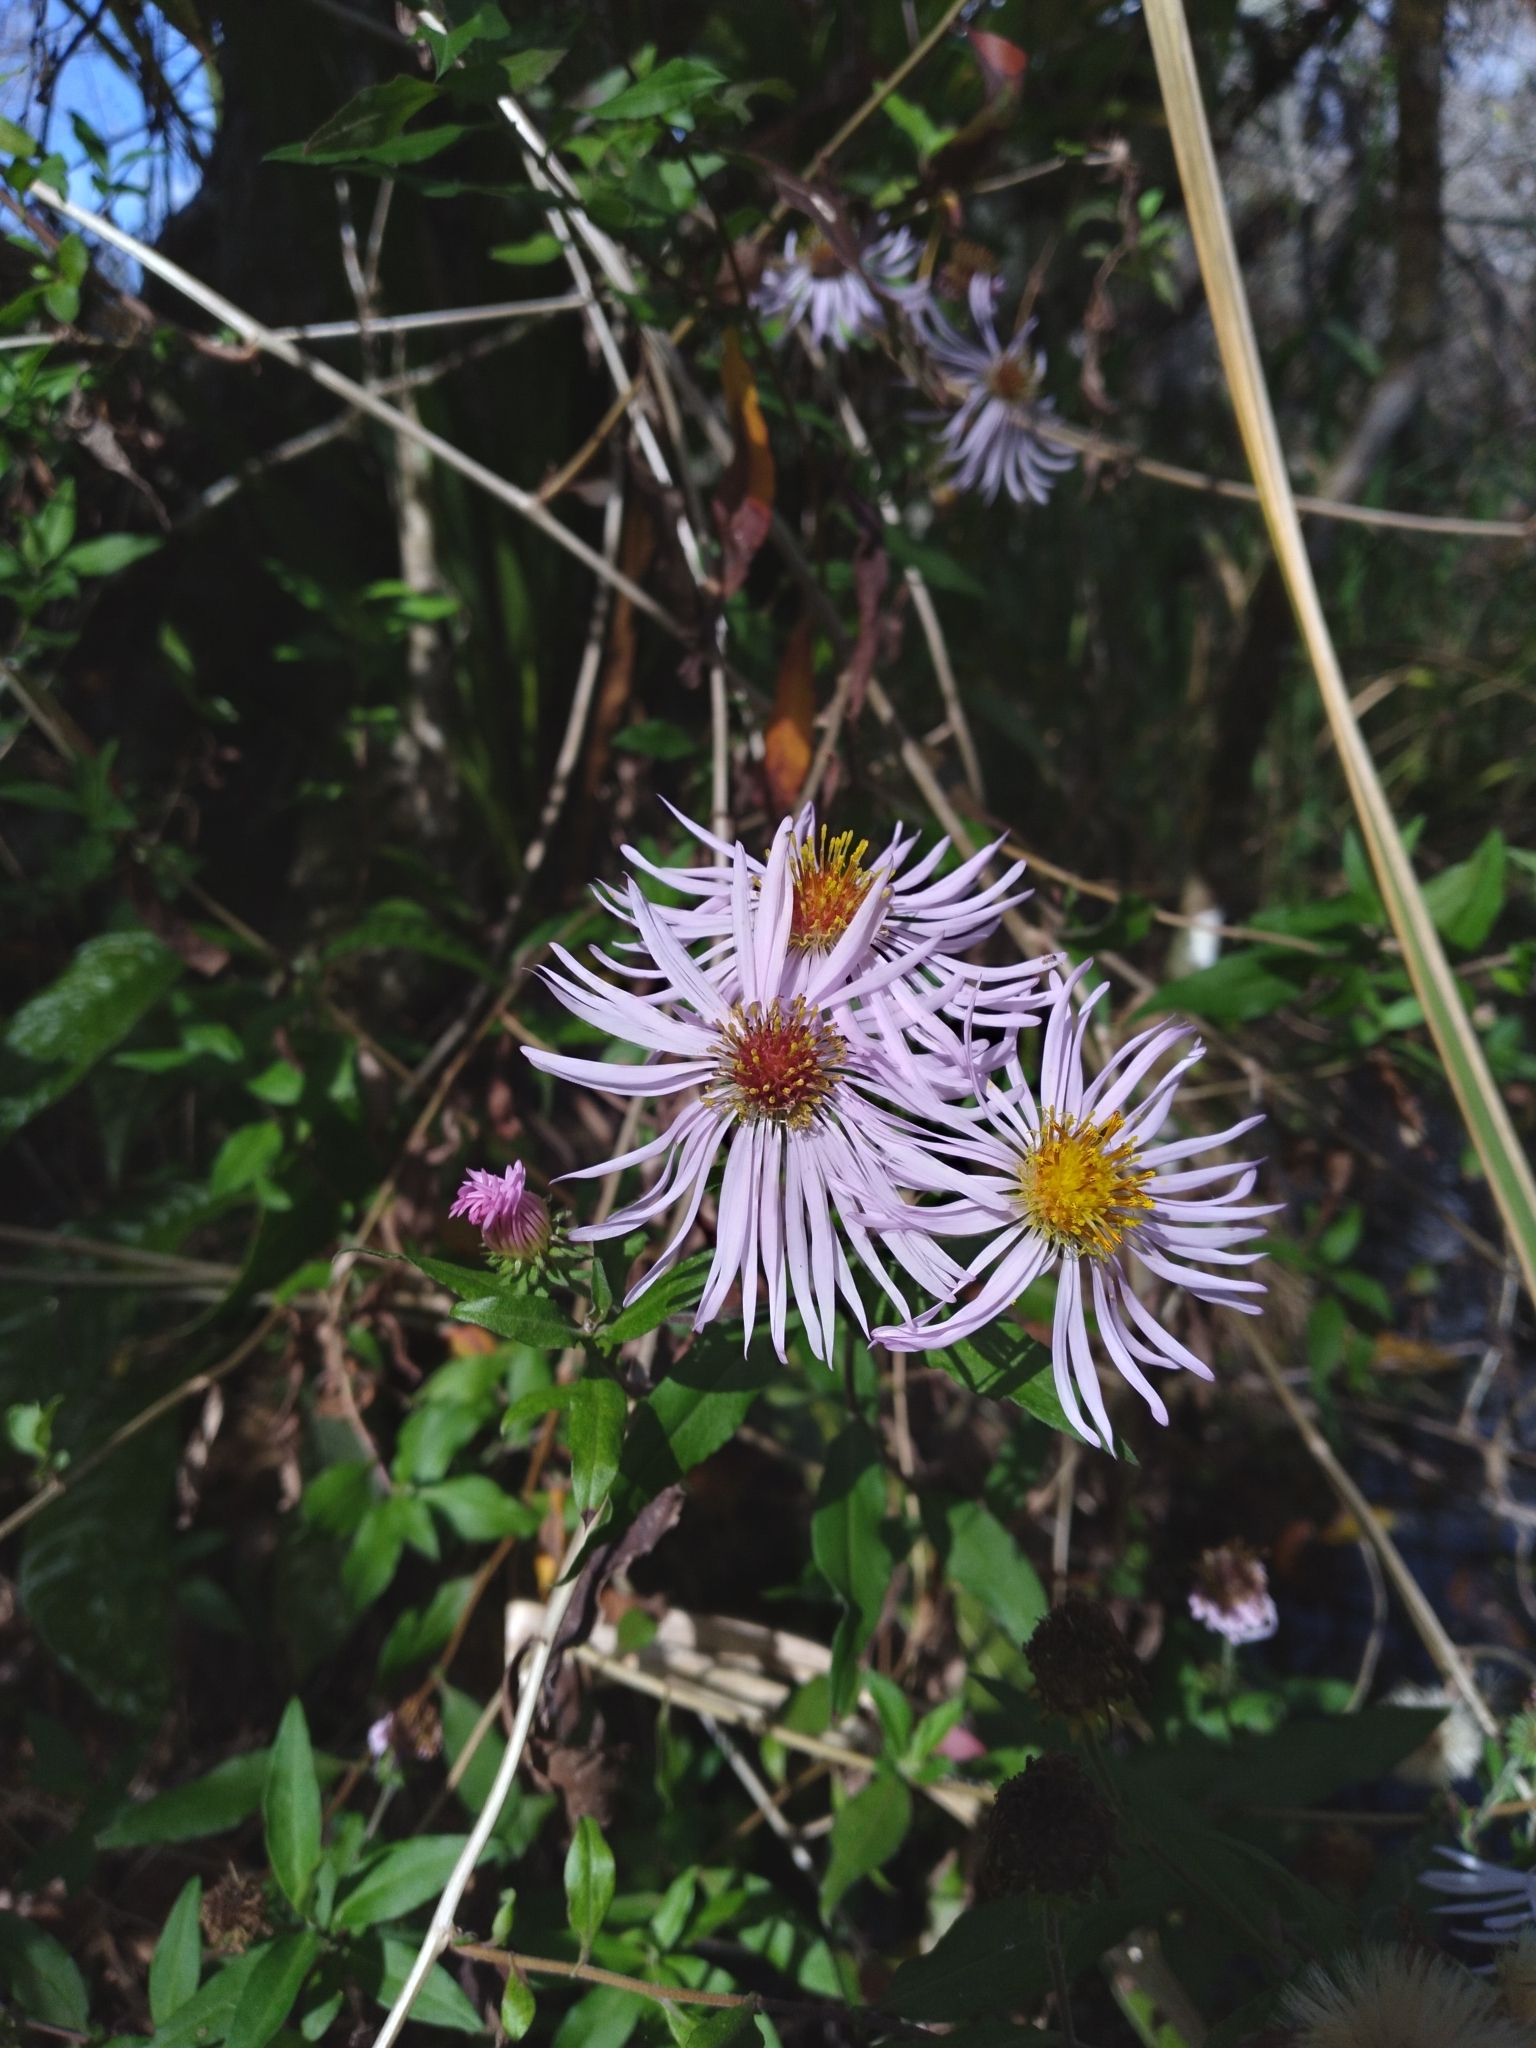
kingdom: Plantae
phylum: Tracheophyta
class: Magnoliopsida
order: Asterales
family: Asteraceae
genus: Ampelaster
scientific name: Ampelaster carolinianus
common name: Climbing aster
